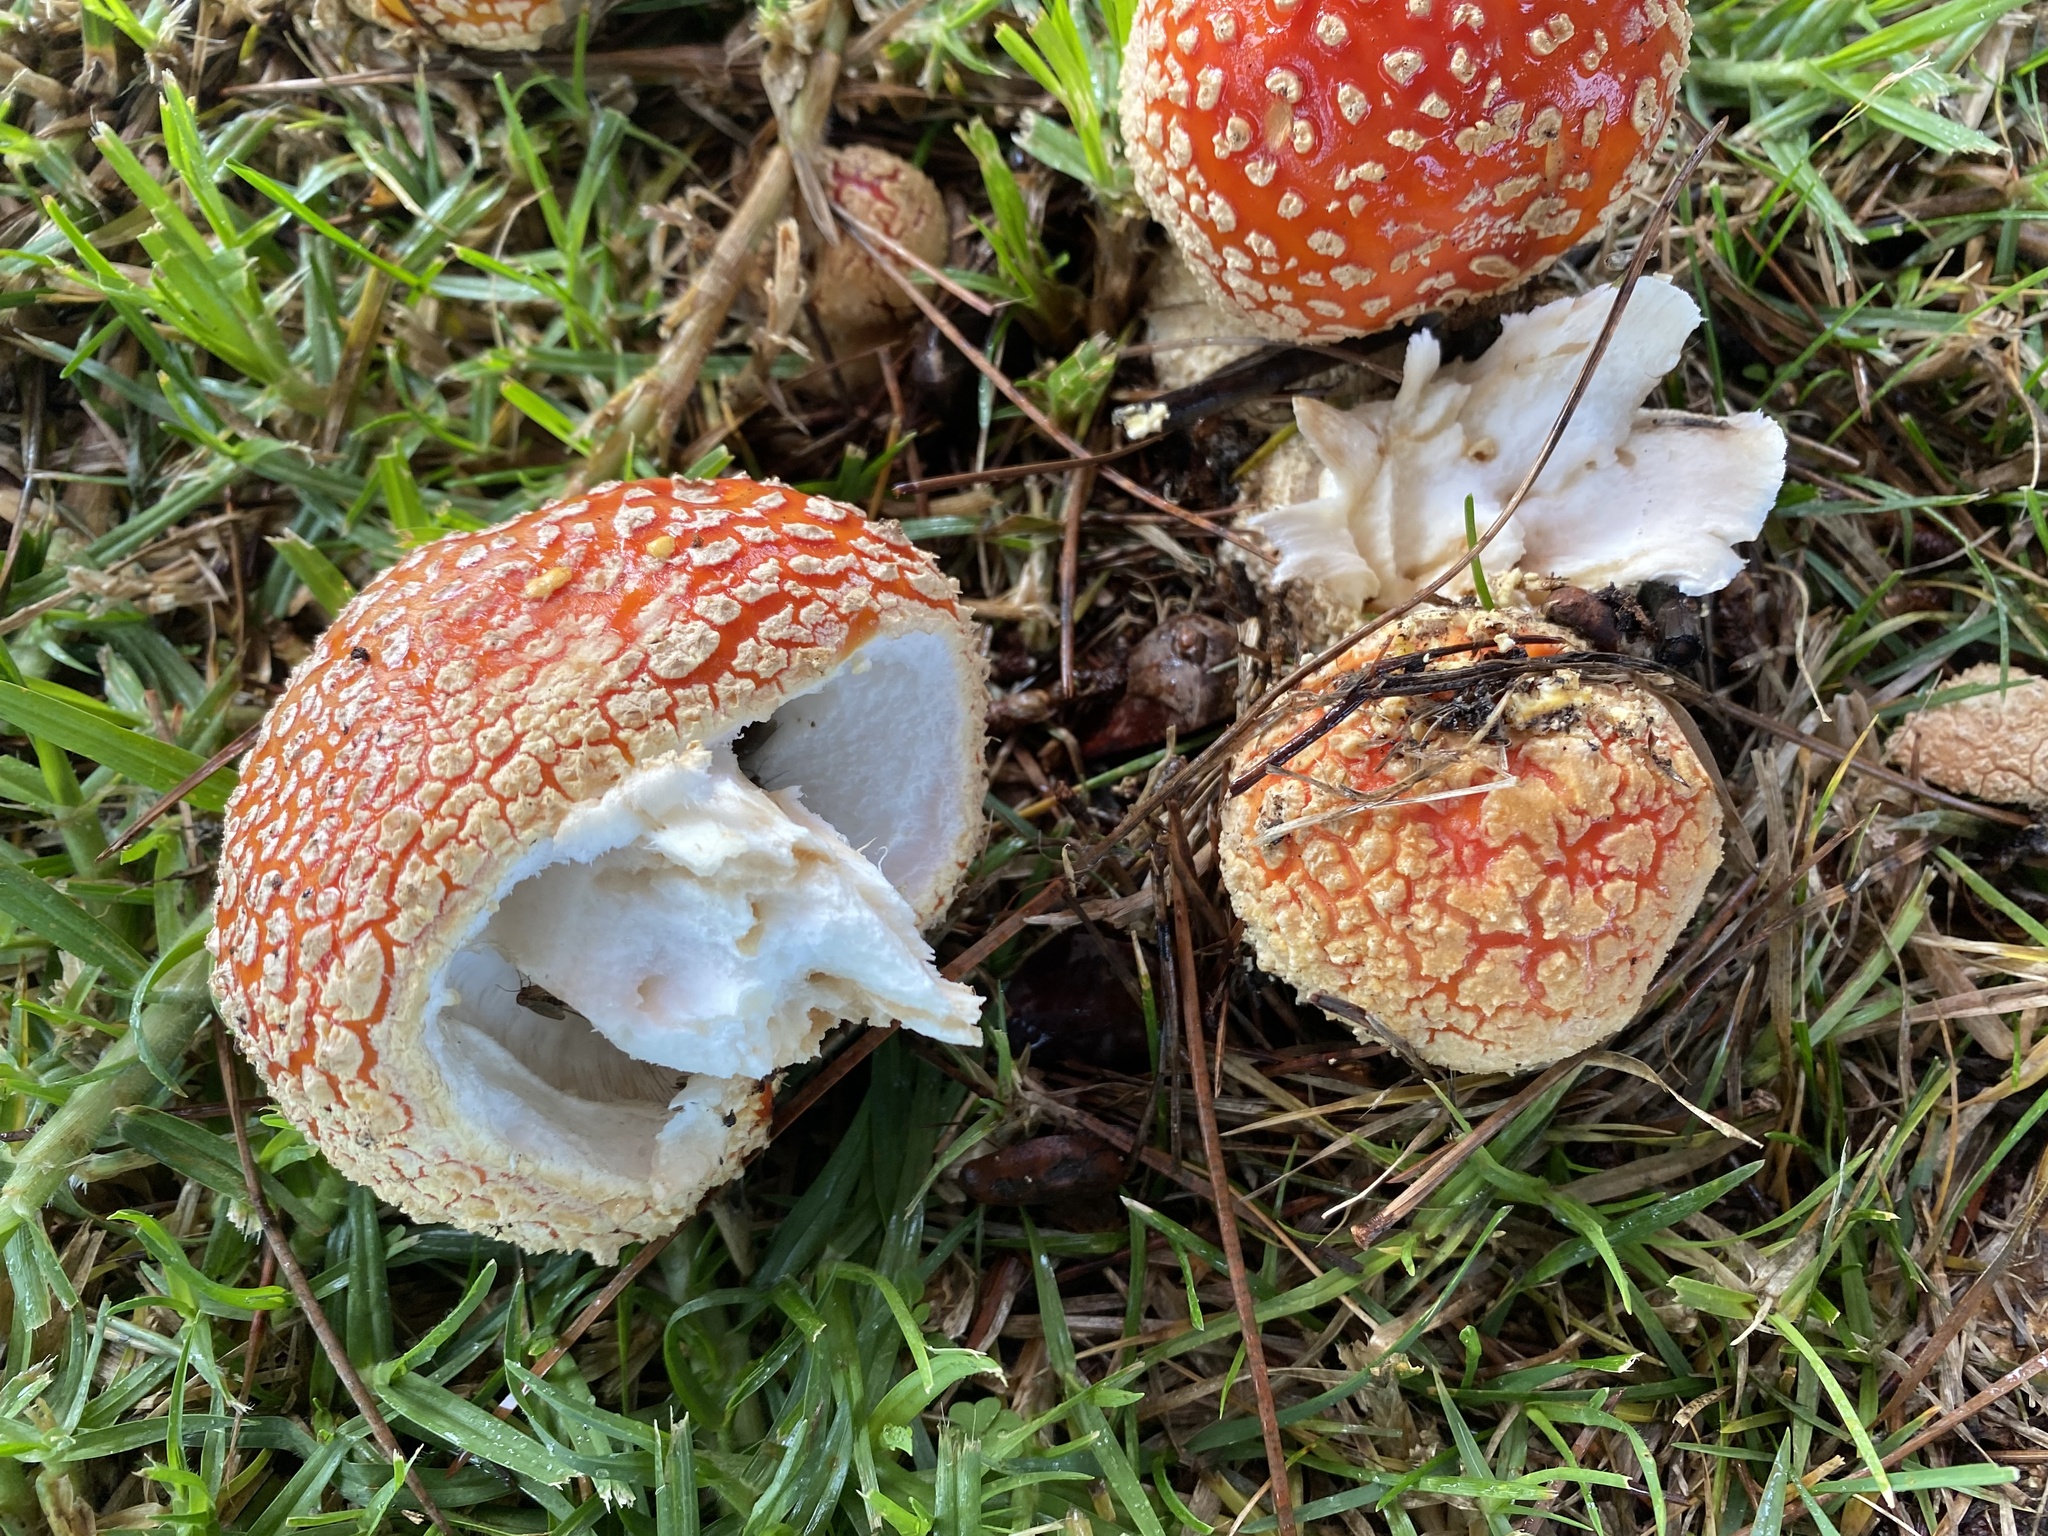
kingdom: Fungi
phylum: Basidiomycota
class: Agaricomycetes
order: Agaricales
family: Amanitaceae
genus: Amanita
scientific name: Amanita muscaria
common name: Fly agaric
